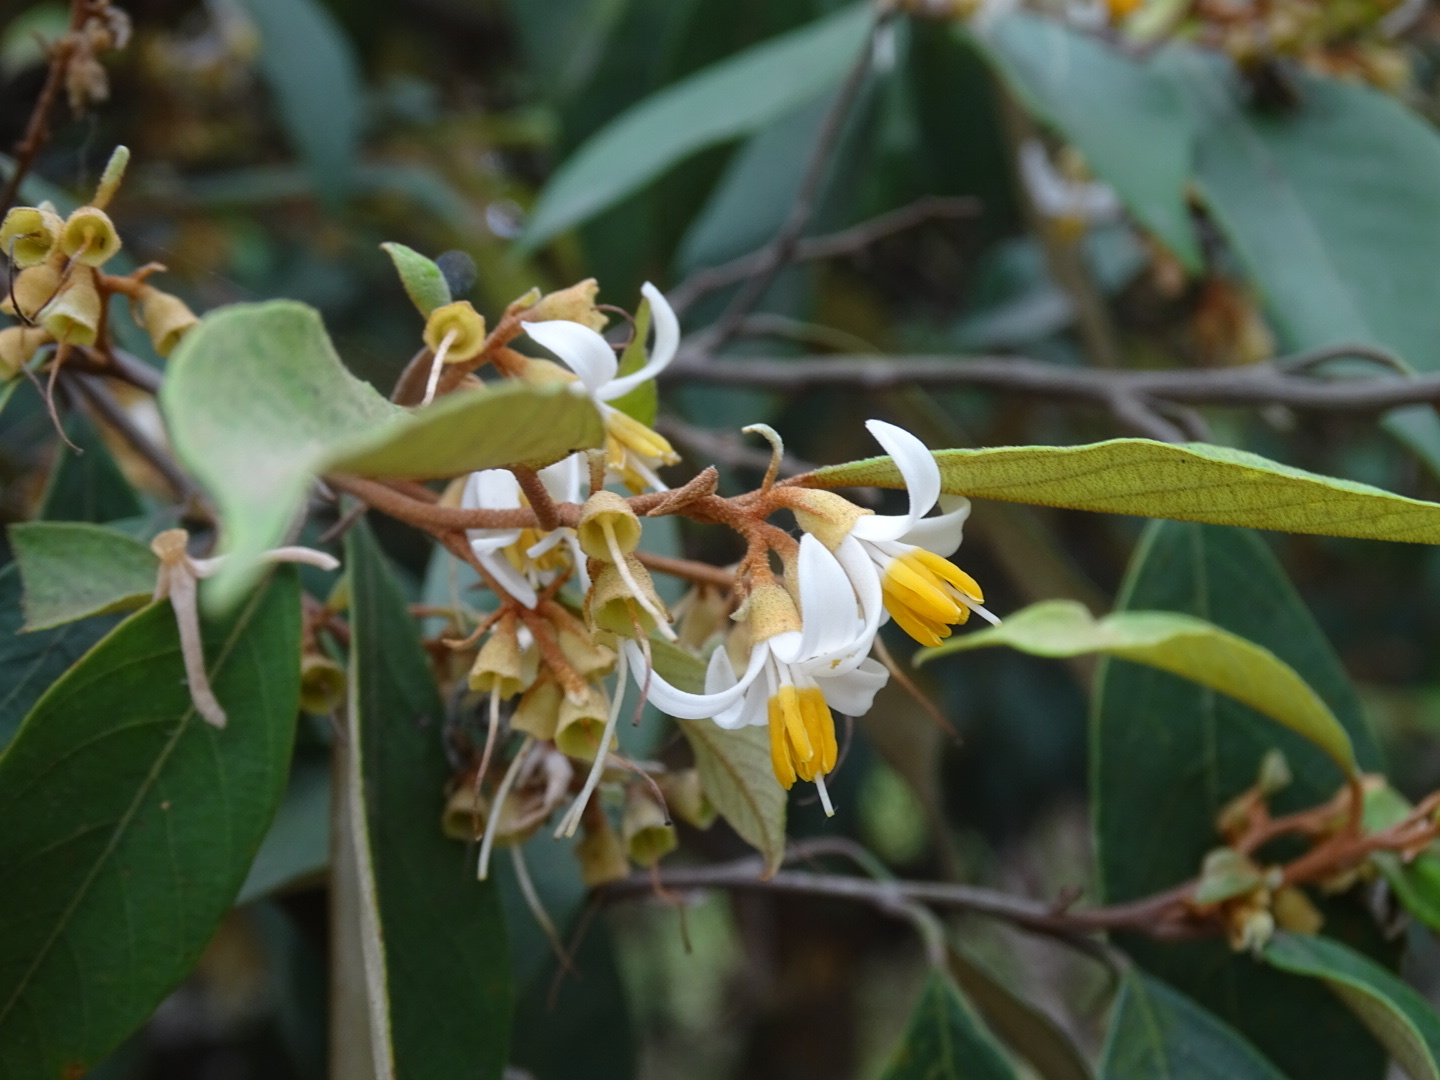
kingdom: Plantae
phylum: Tracheophyta
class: Magnoliopsida
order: Ericales
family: Styracaceae
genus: Styrax
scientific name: Styrax suberifolius
